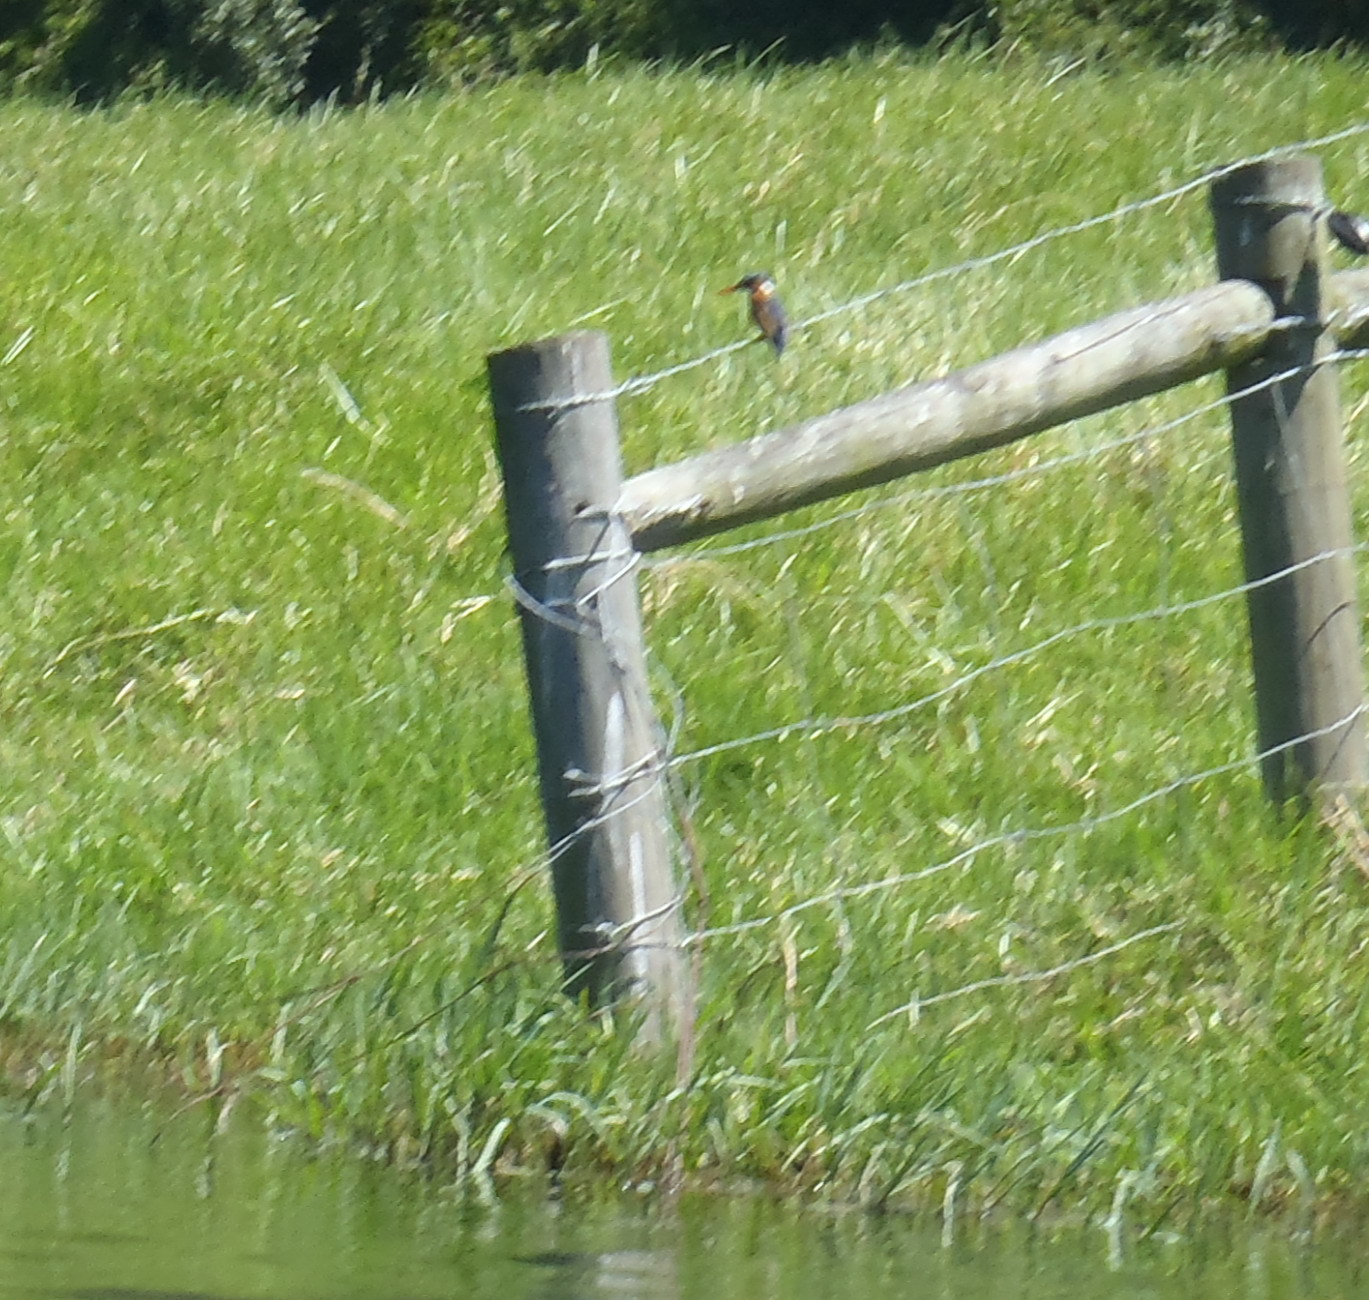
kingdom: Animalia
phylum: Chordata
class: Aves
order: Coraciiformes
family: Alcedinidae
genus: Corythornis
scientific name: Corythornis cristatus
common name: Malachite kingfisher
